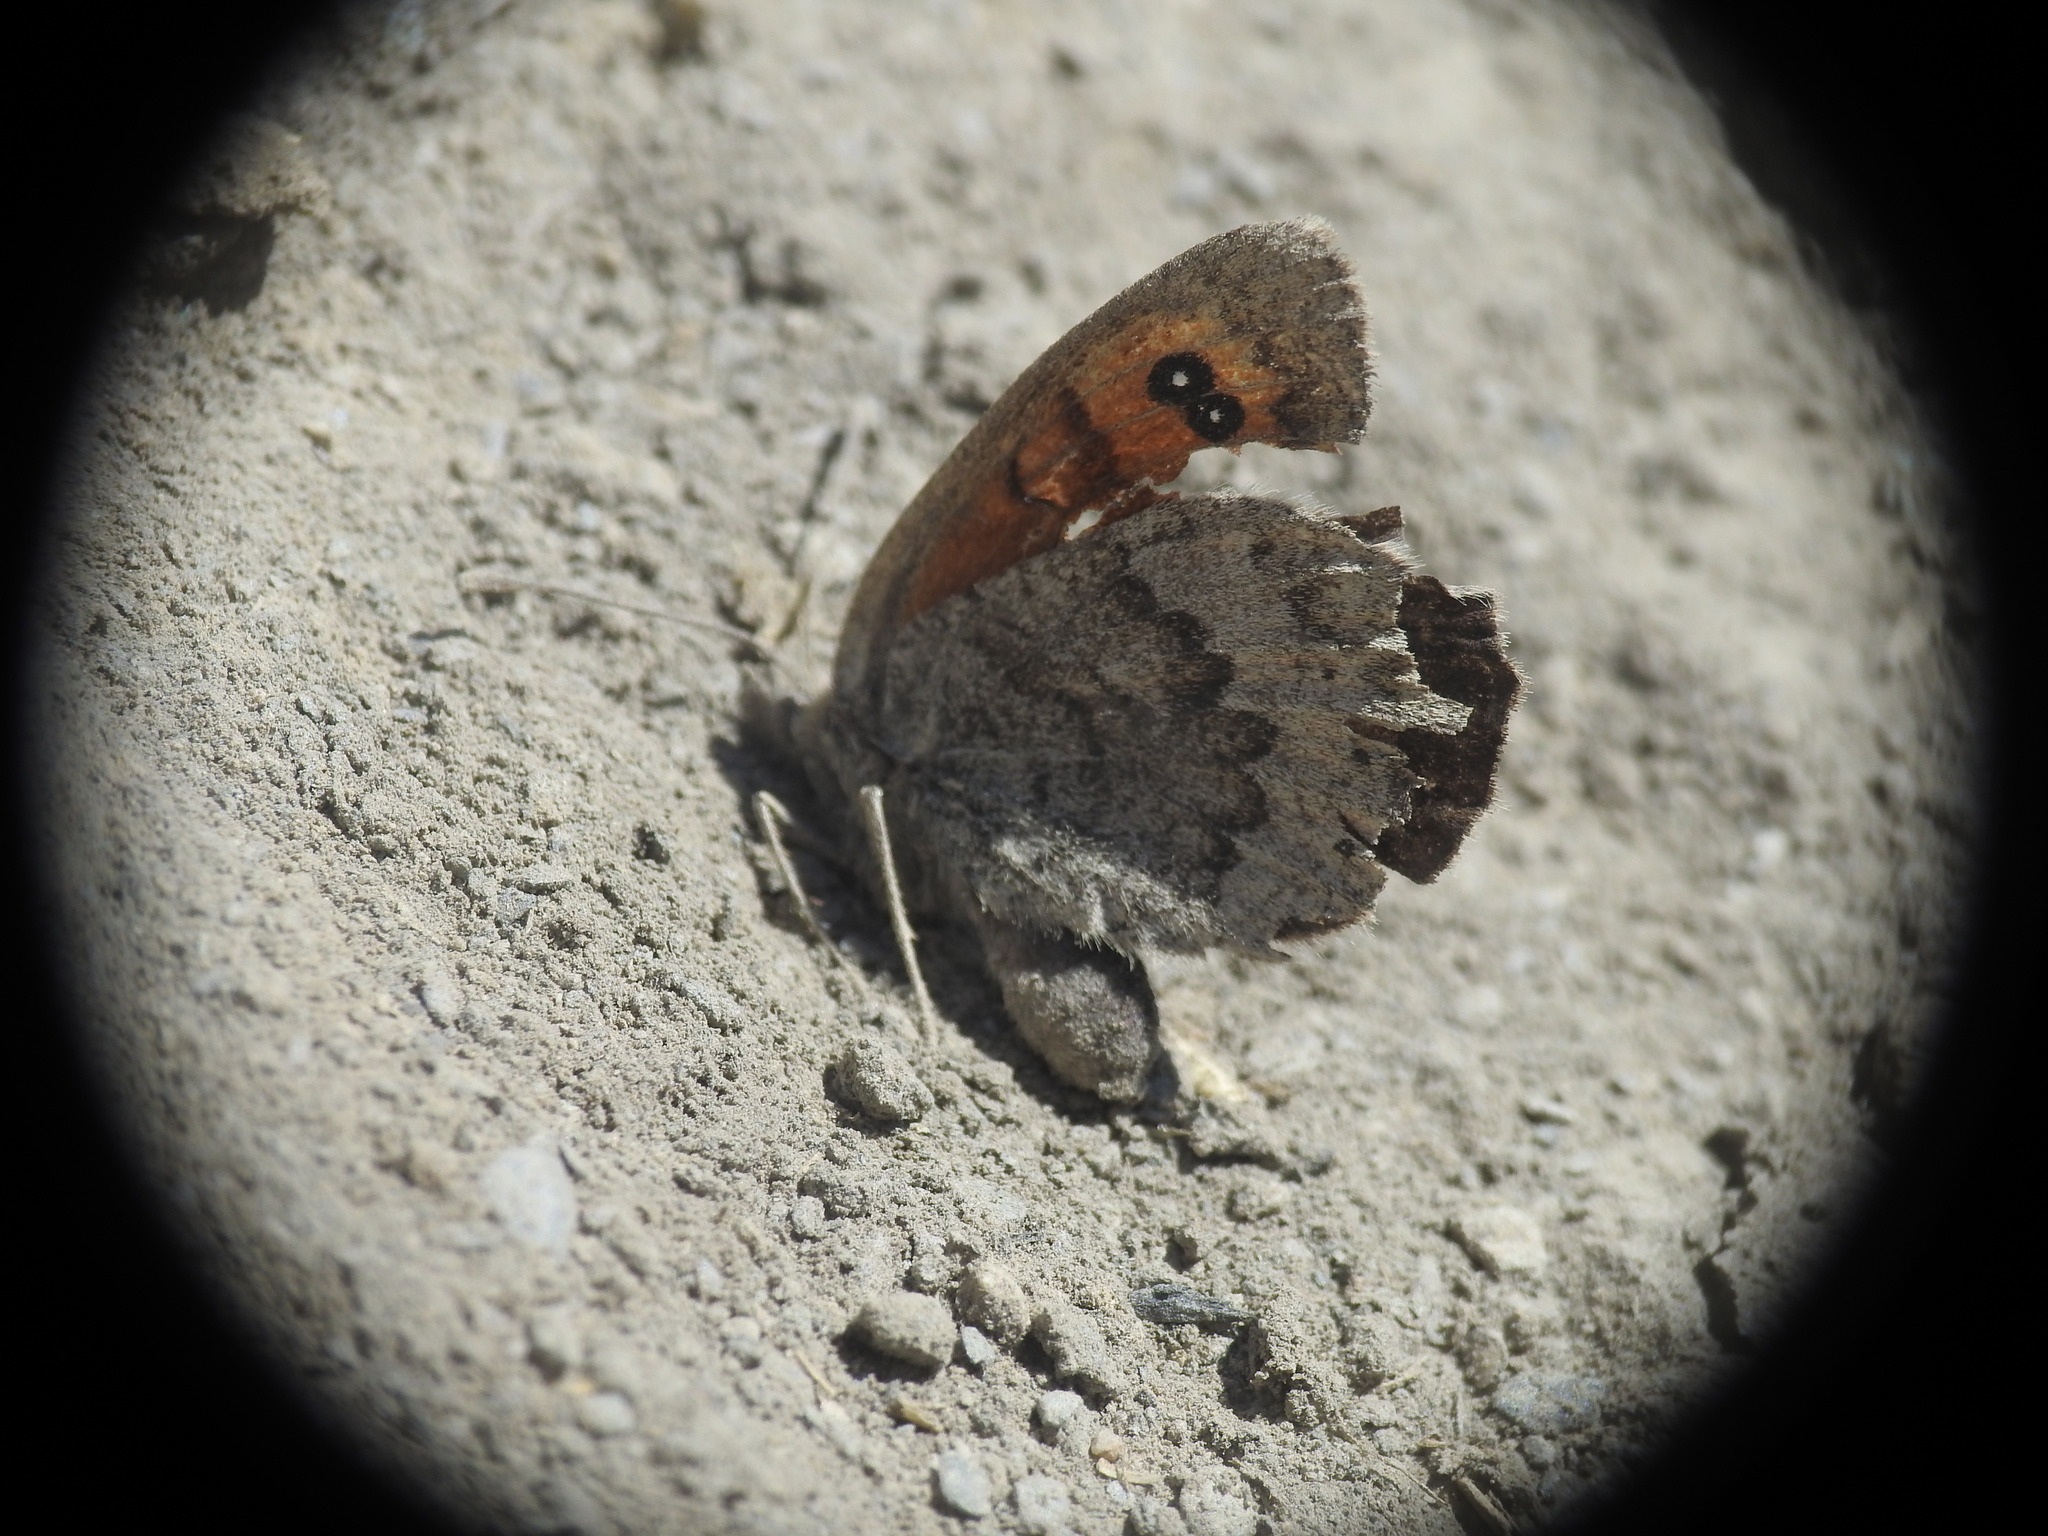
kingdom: Animalia
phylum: Arthropoda
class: Insecta
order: Lepidoptera
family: Nymphalidae
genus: Erebia
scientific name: Erebia cassioides
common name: Common brassy ringlet
